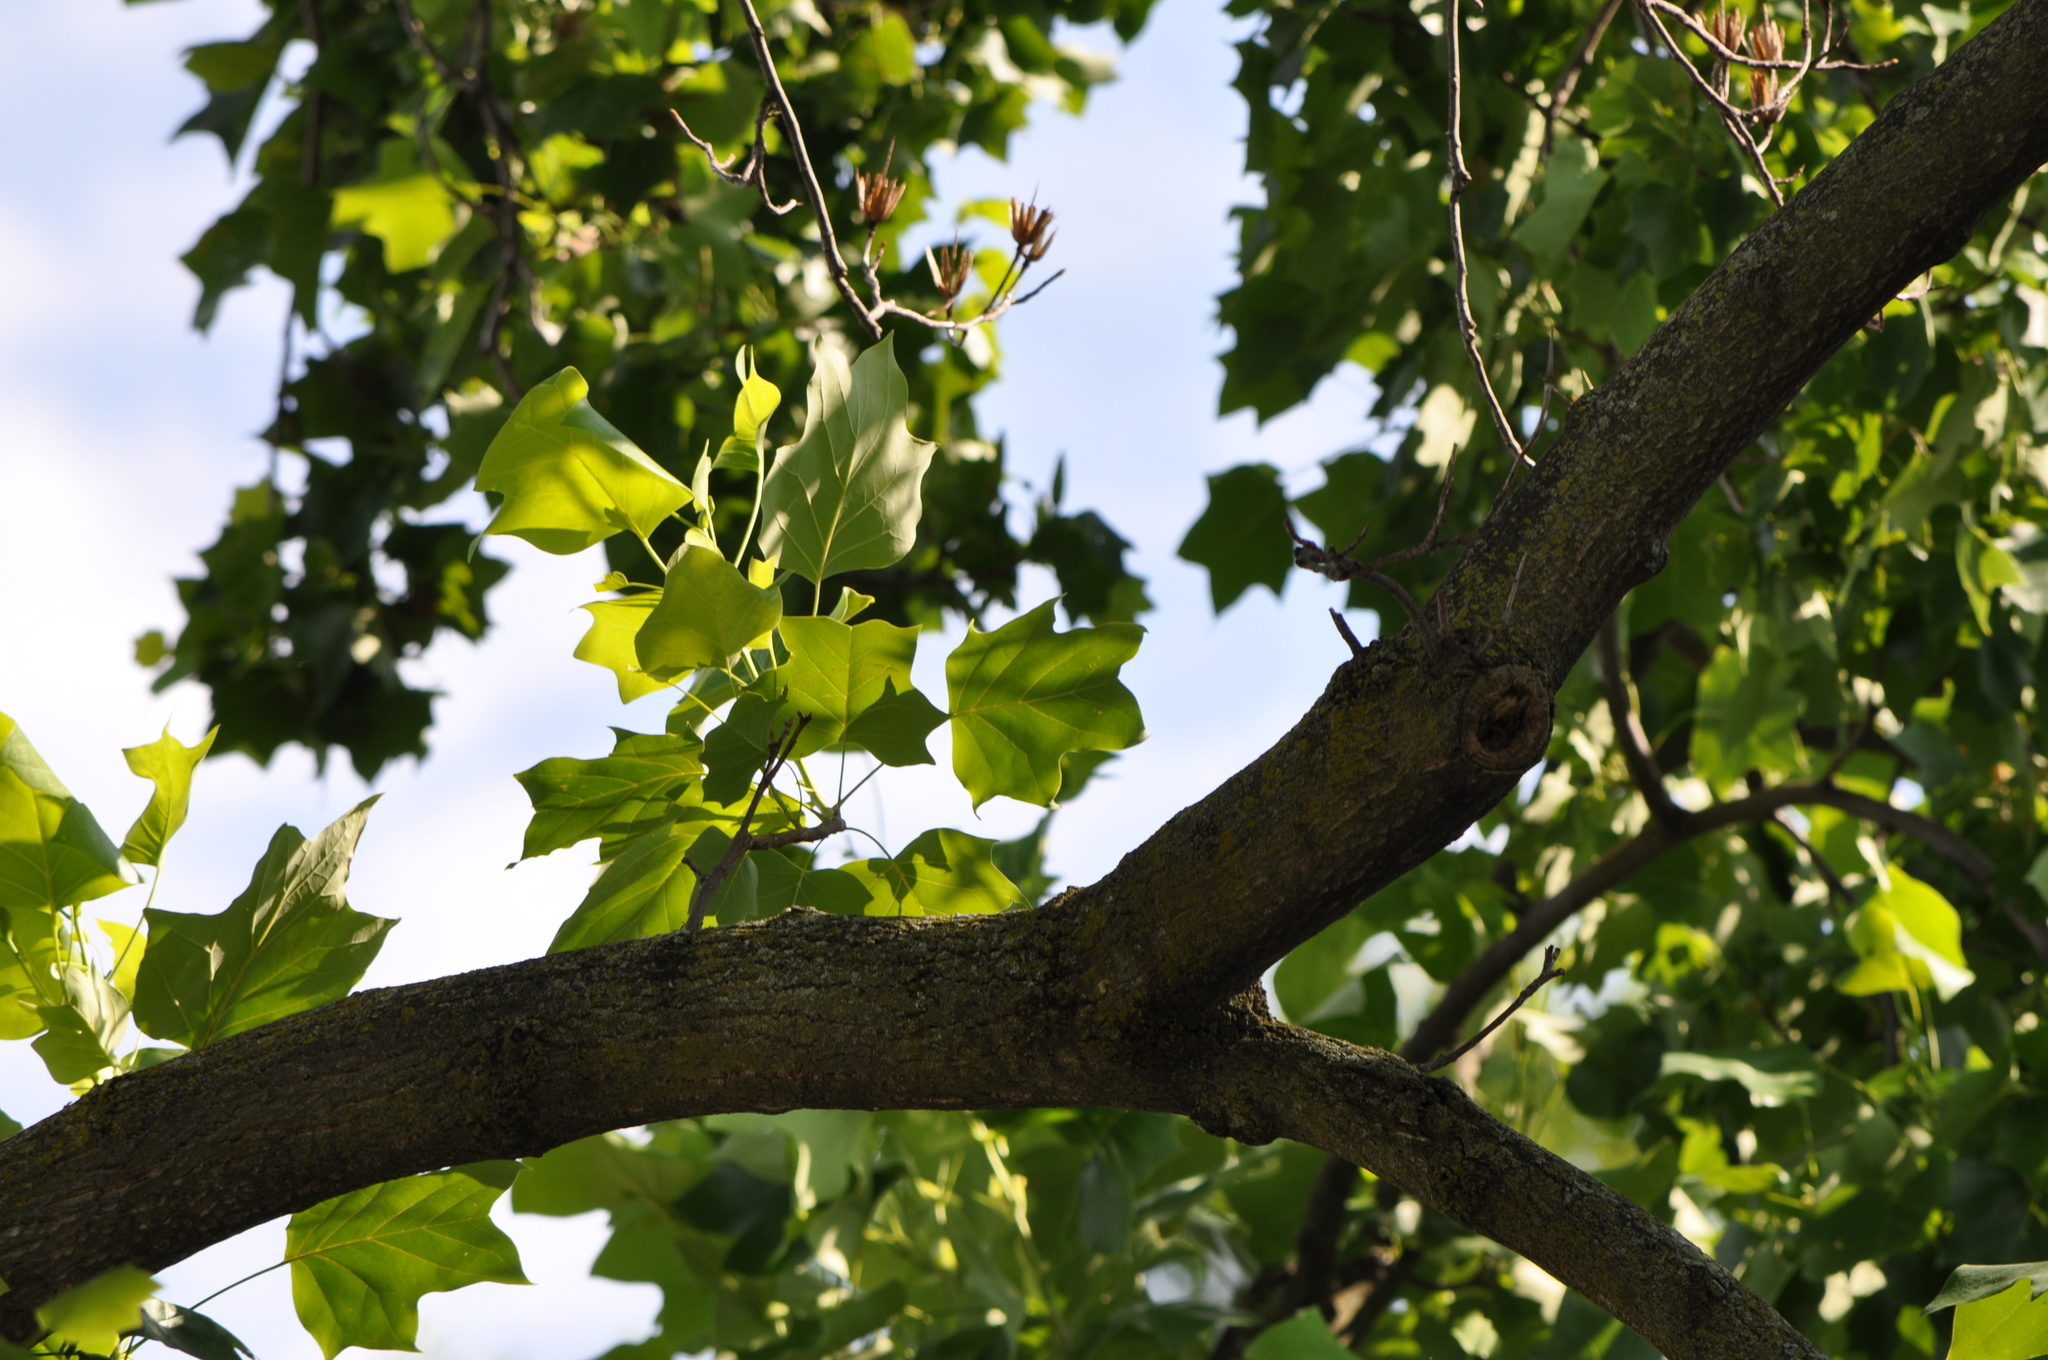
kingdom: Plantae
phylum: Tracheophyta
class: Magnoliopsida
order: Magnoliales
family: Magnoliaceae
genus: Liriodendron
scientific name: Liriodendron tulipifera
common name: Tulip tree
